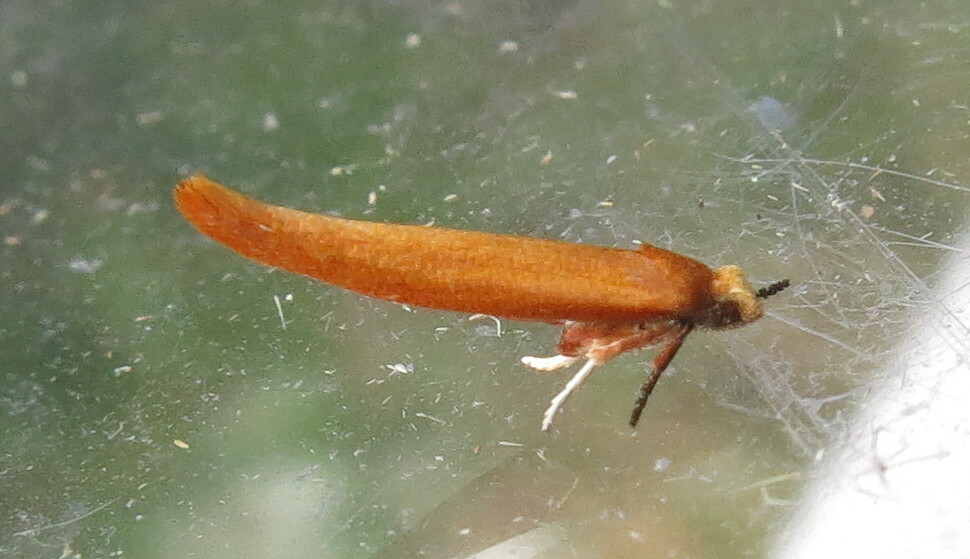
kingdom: Animalia
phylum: Arthropoda
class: Insecta
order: Lepidoptera
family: Yponomeutidae
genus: Zelleria
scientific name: Zelleria hepariella
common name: Brown ash ermine
